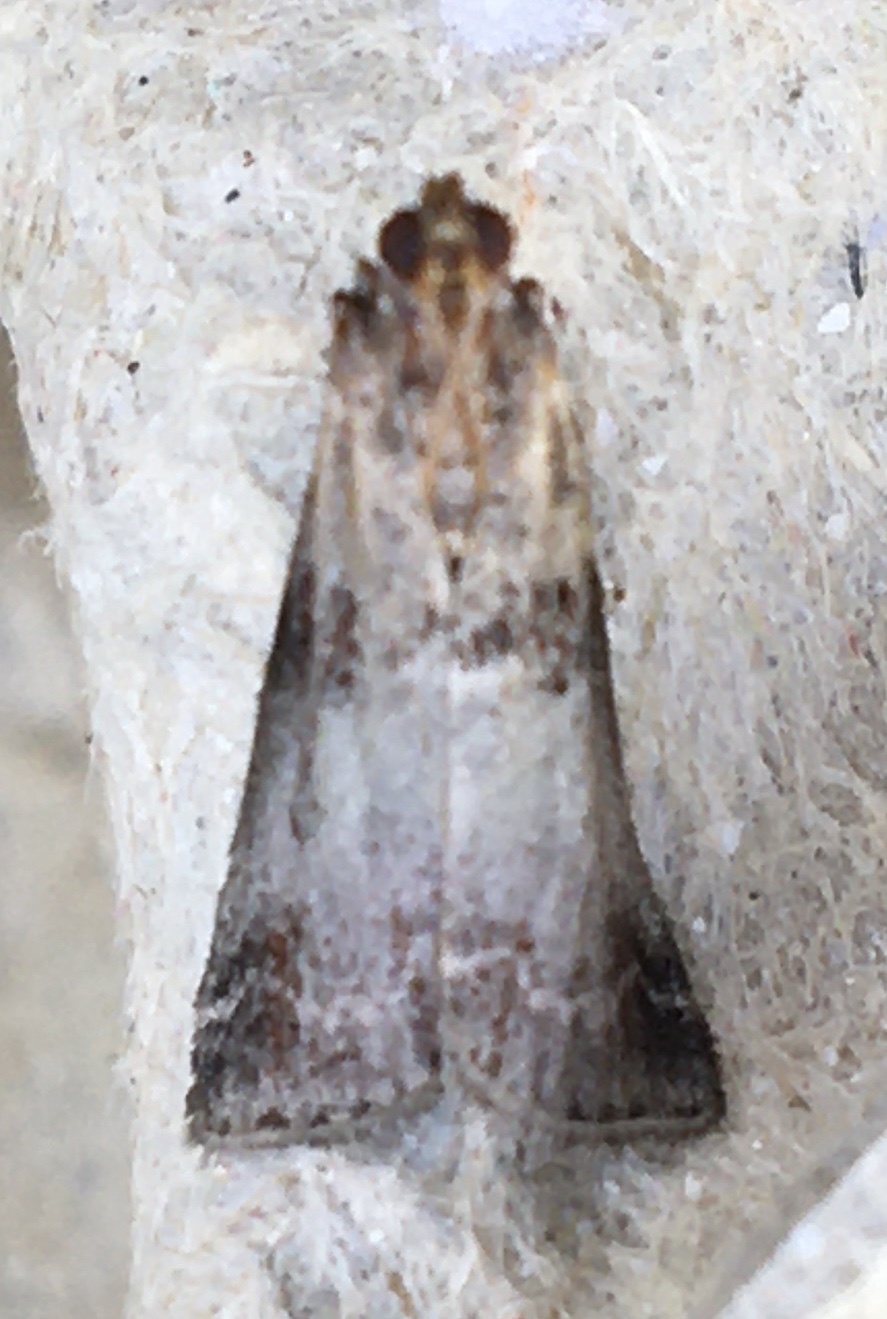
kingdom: Animalia
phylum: Arthropoda
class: Insecta
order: Lepidoptera
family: Pyralidae
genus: Acrobasis
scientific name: Acrobasis advenella
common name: Grey knot-horn
